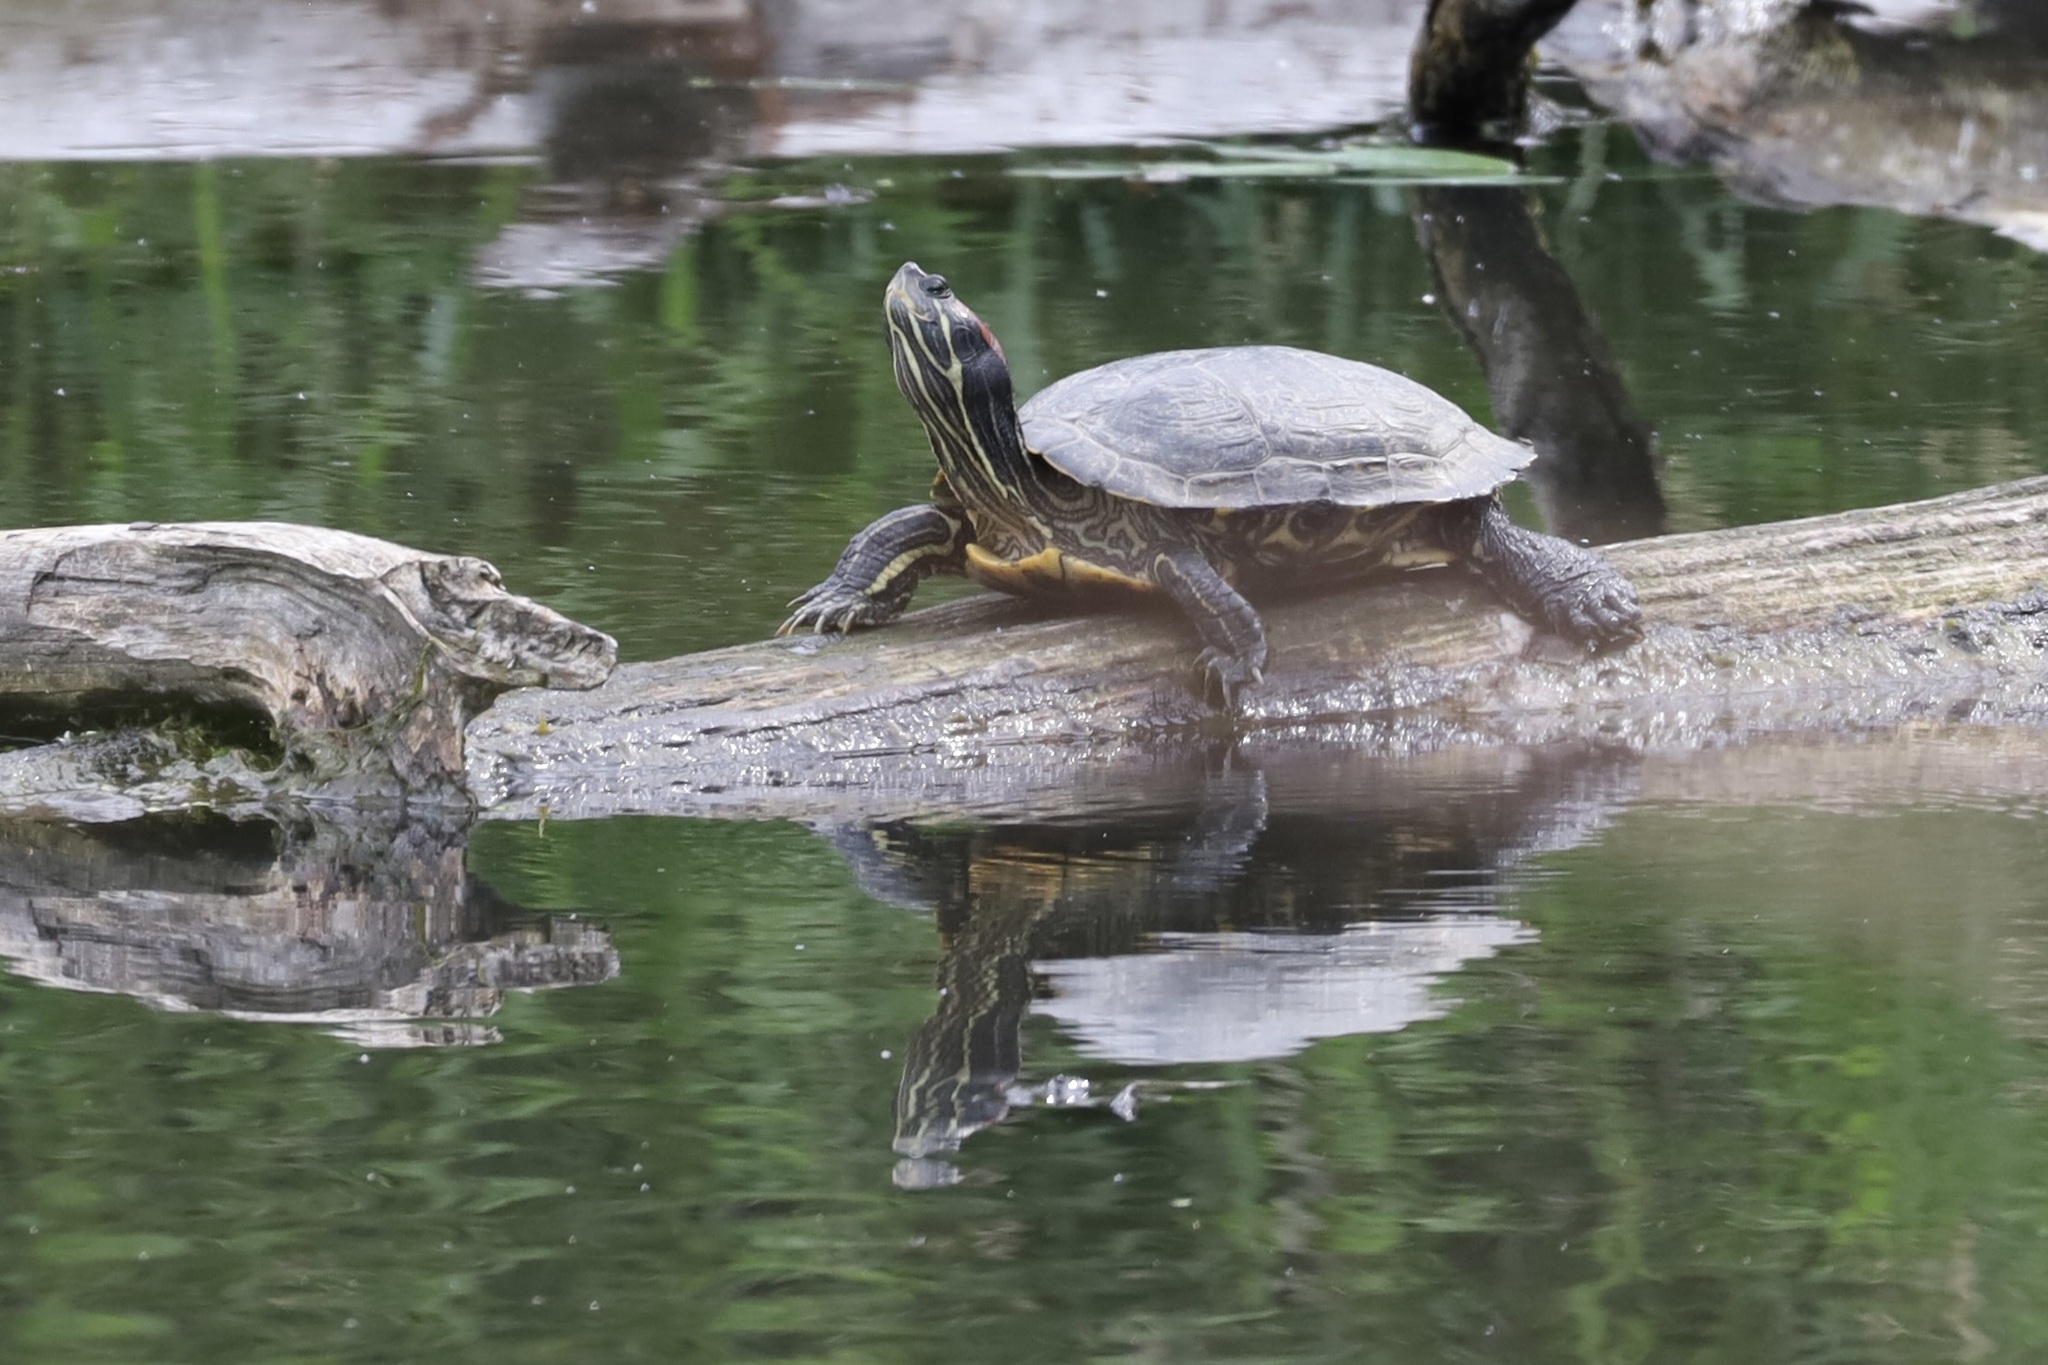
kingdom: Animalia
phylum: Chordata
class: Testudines
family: Emydidae
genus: Trachemys
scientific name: Trachemys scripta
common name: Slider
